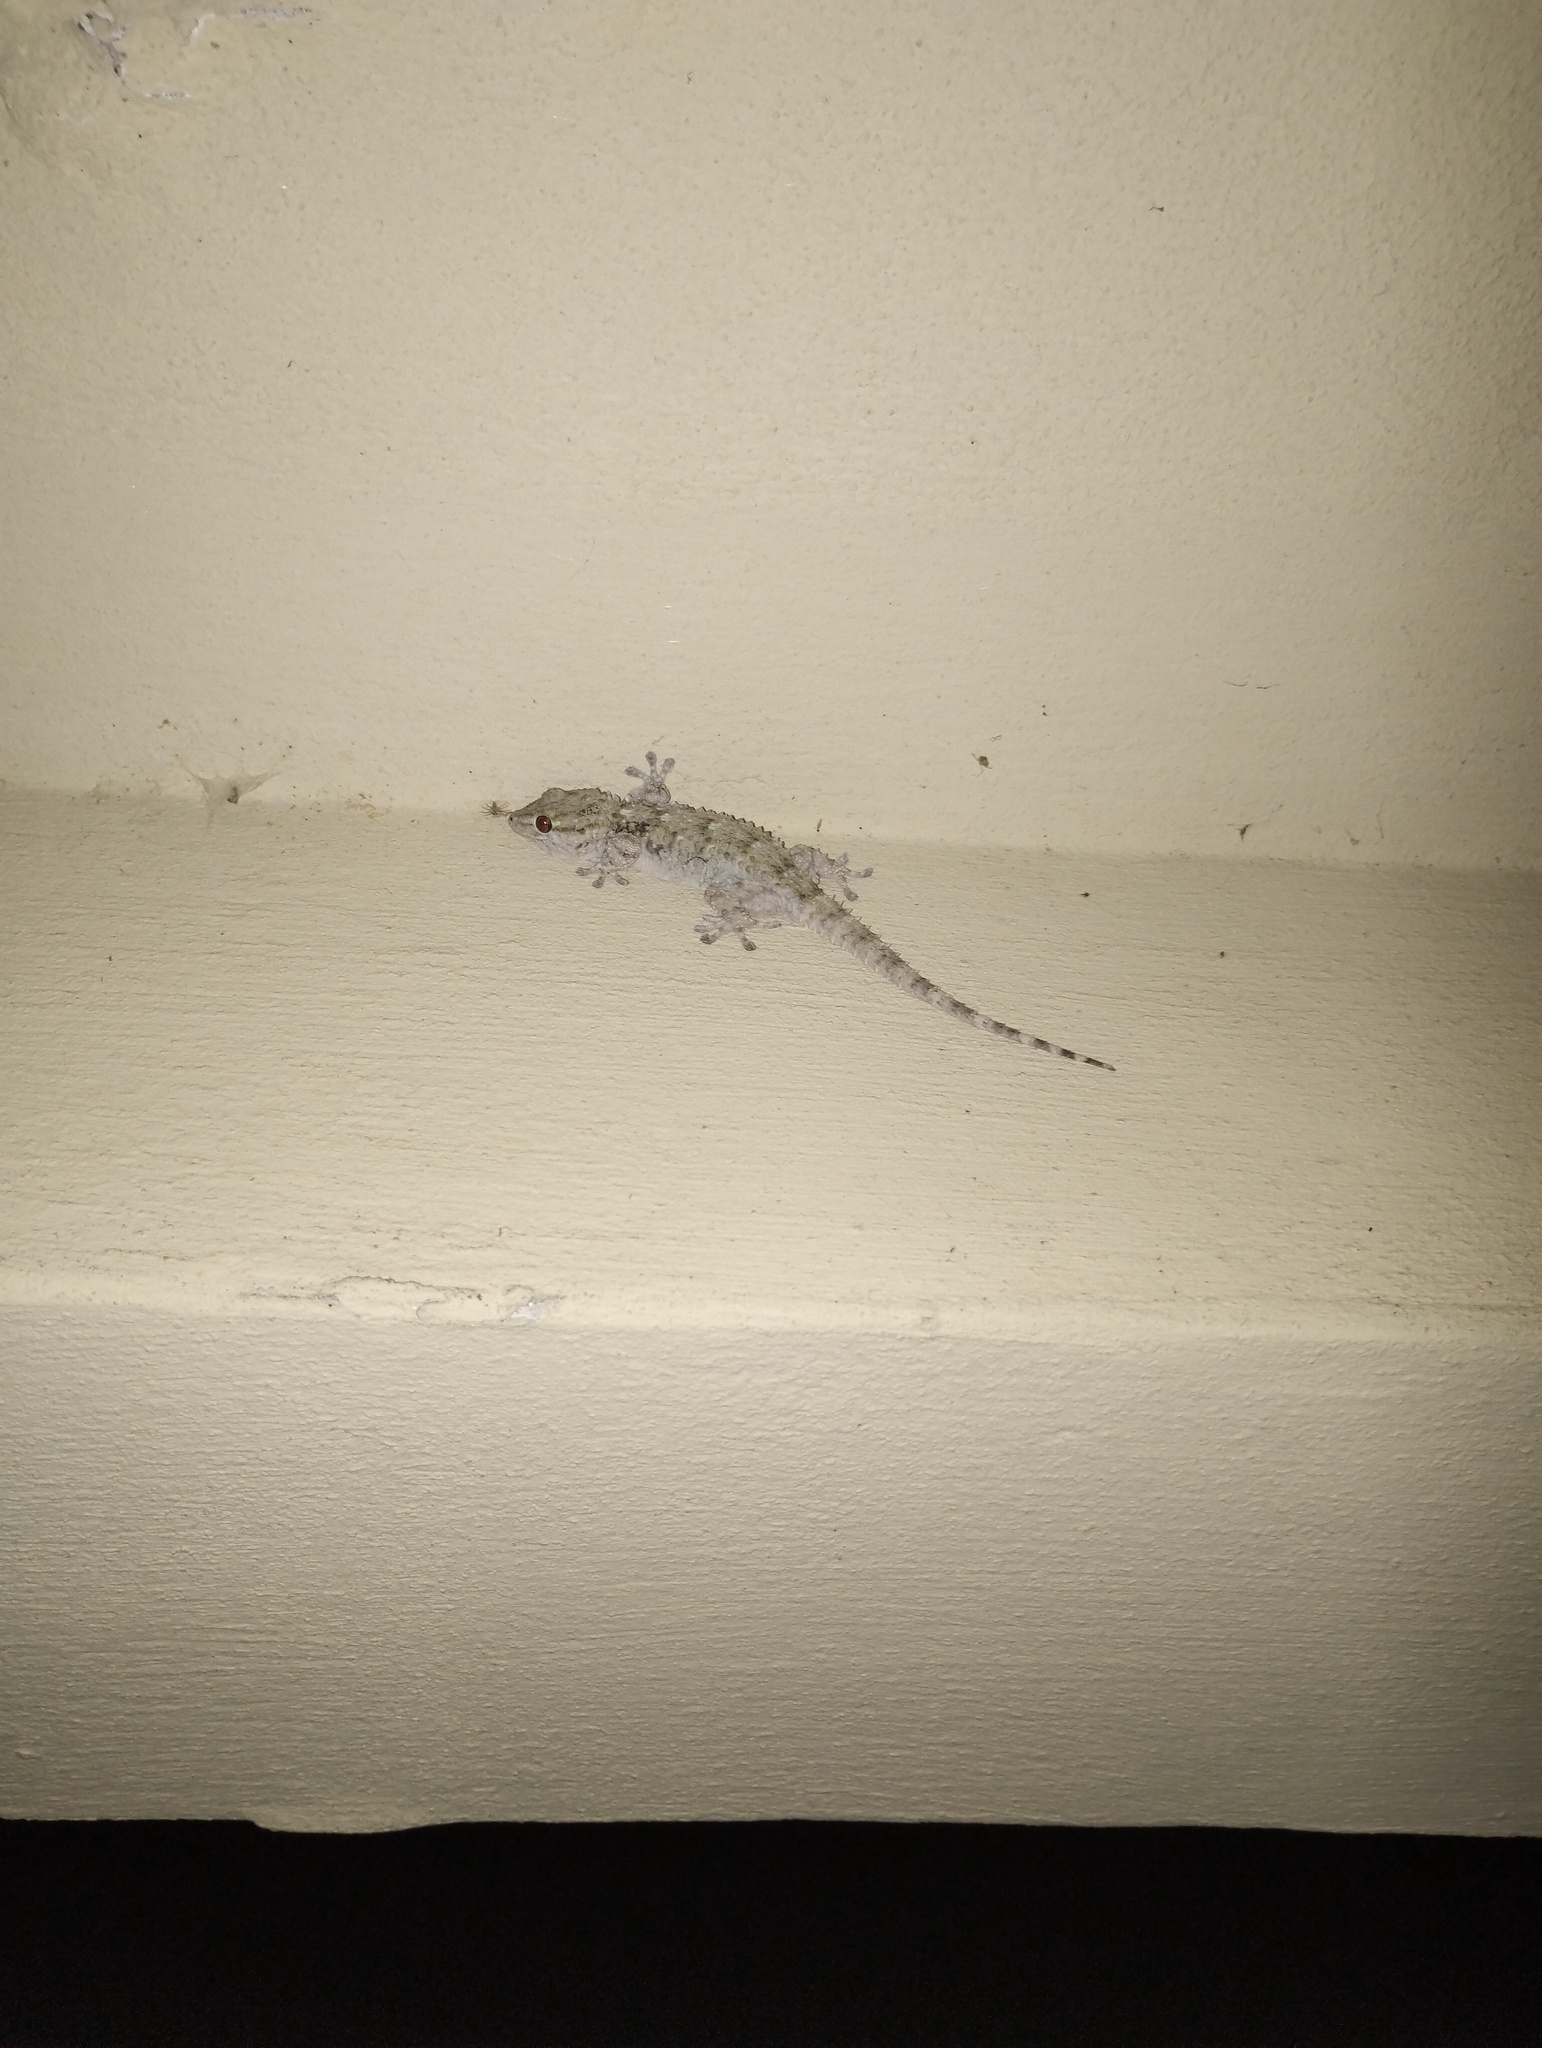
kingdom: Animalia
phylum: Chordata
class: Squamata
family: Phyllodactylidae
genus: Tarentola
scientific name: Tarentola mauritanica
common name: Moorish gecko
